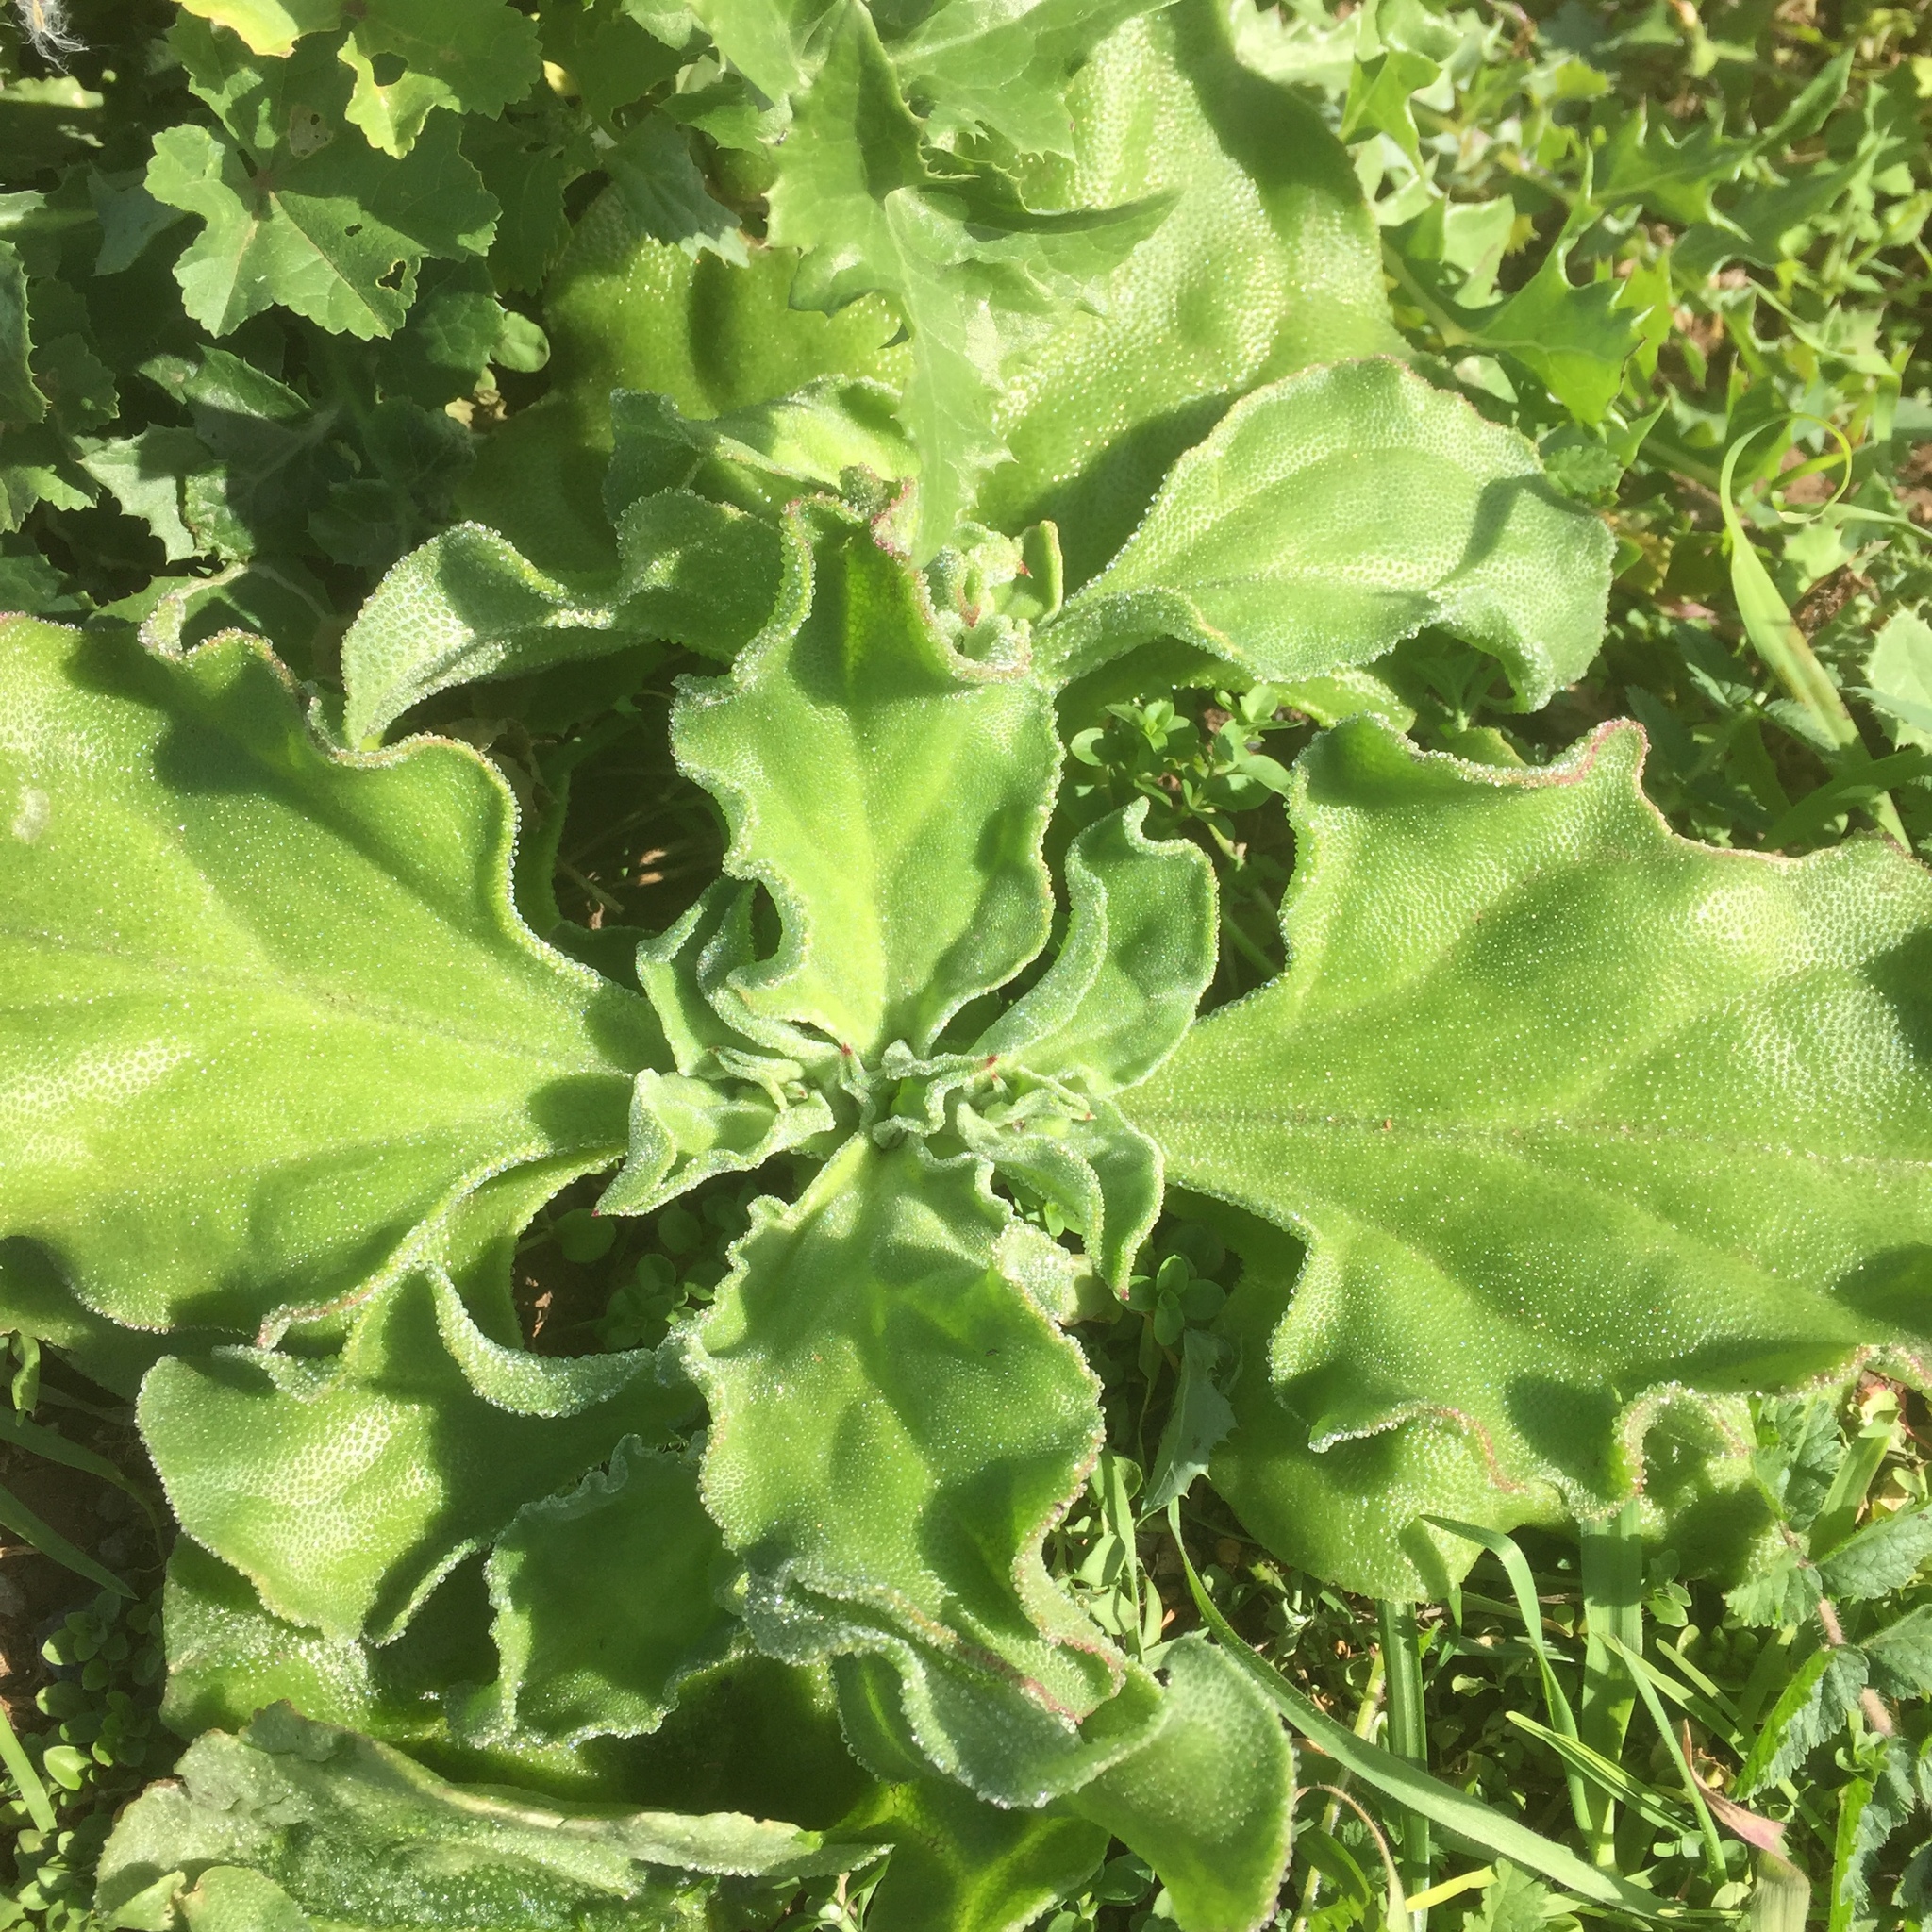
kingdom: Plantae
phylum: Tracheophyta
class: Magnoliopsida
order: Caryophyllales
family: Aizoaceae
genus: Mesembryanthemum
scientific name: Mesembryanthemum crystallinum
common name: Common iceplant
